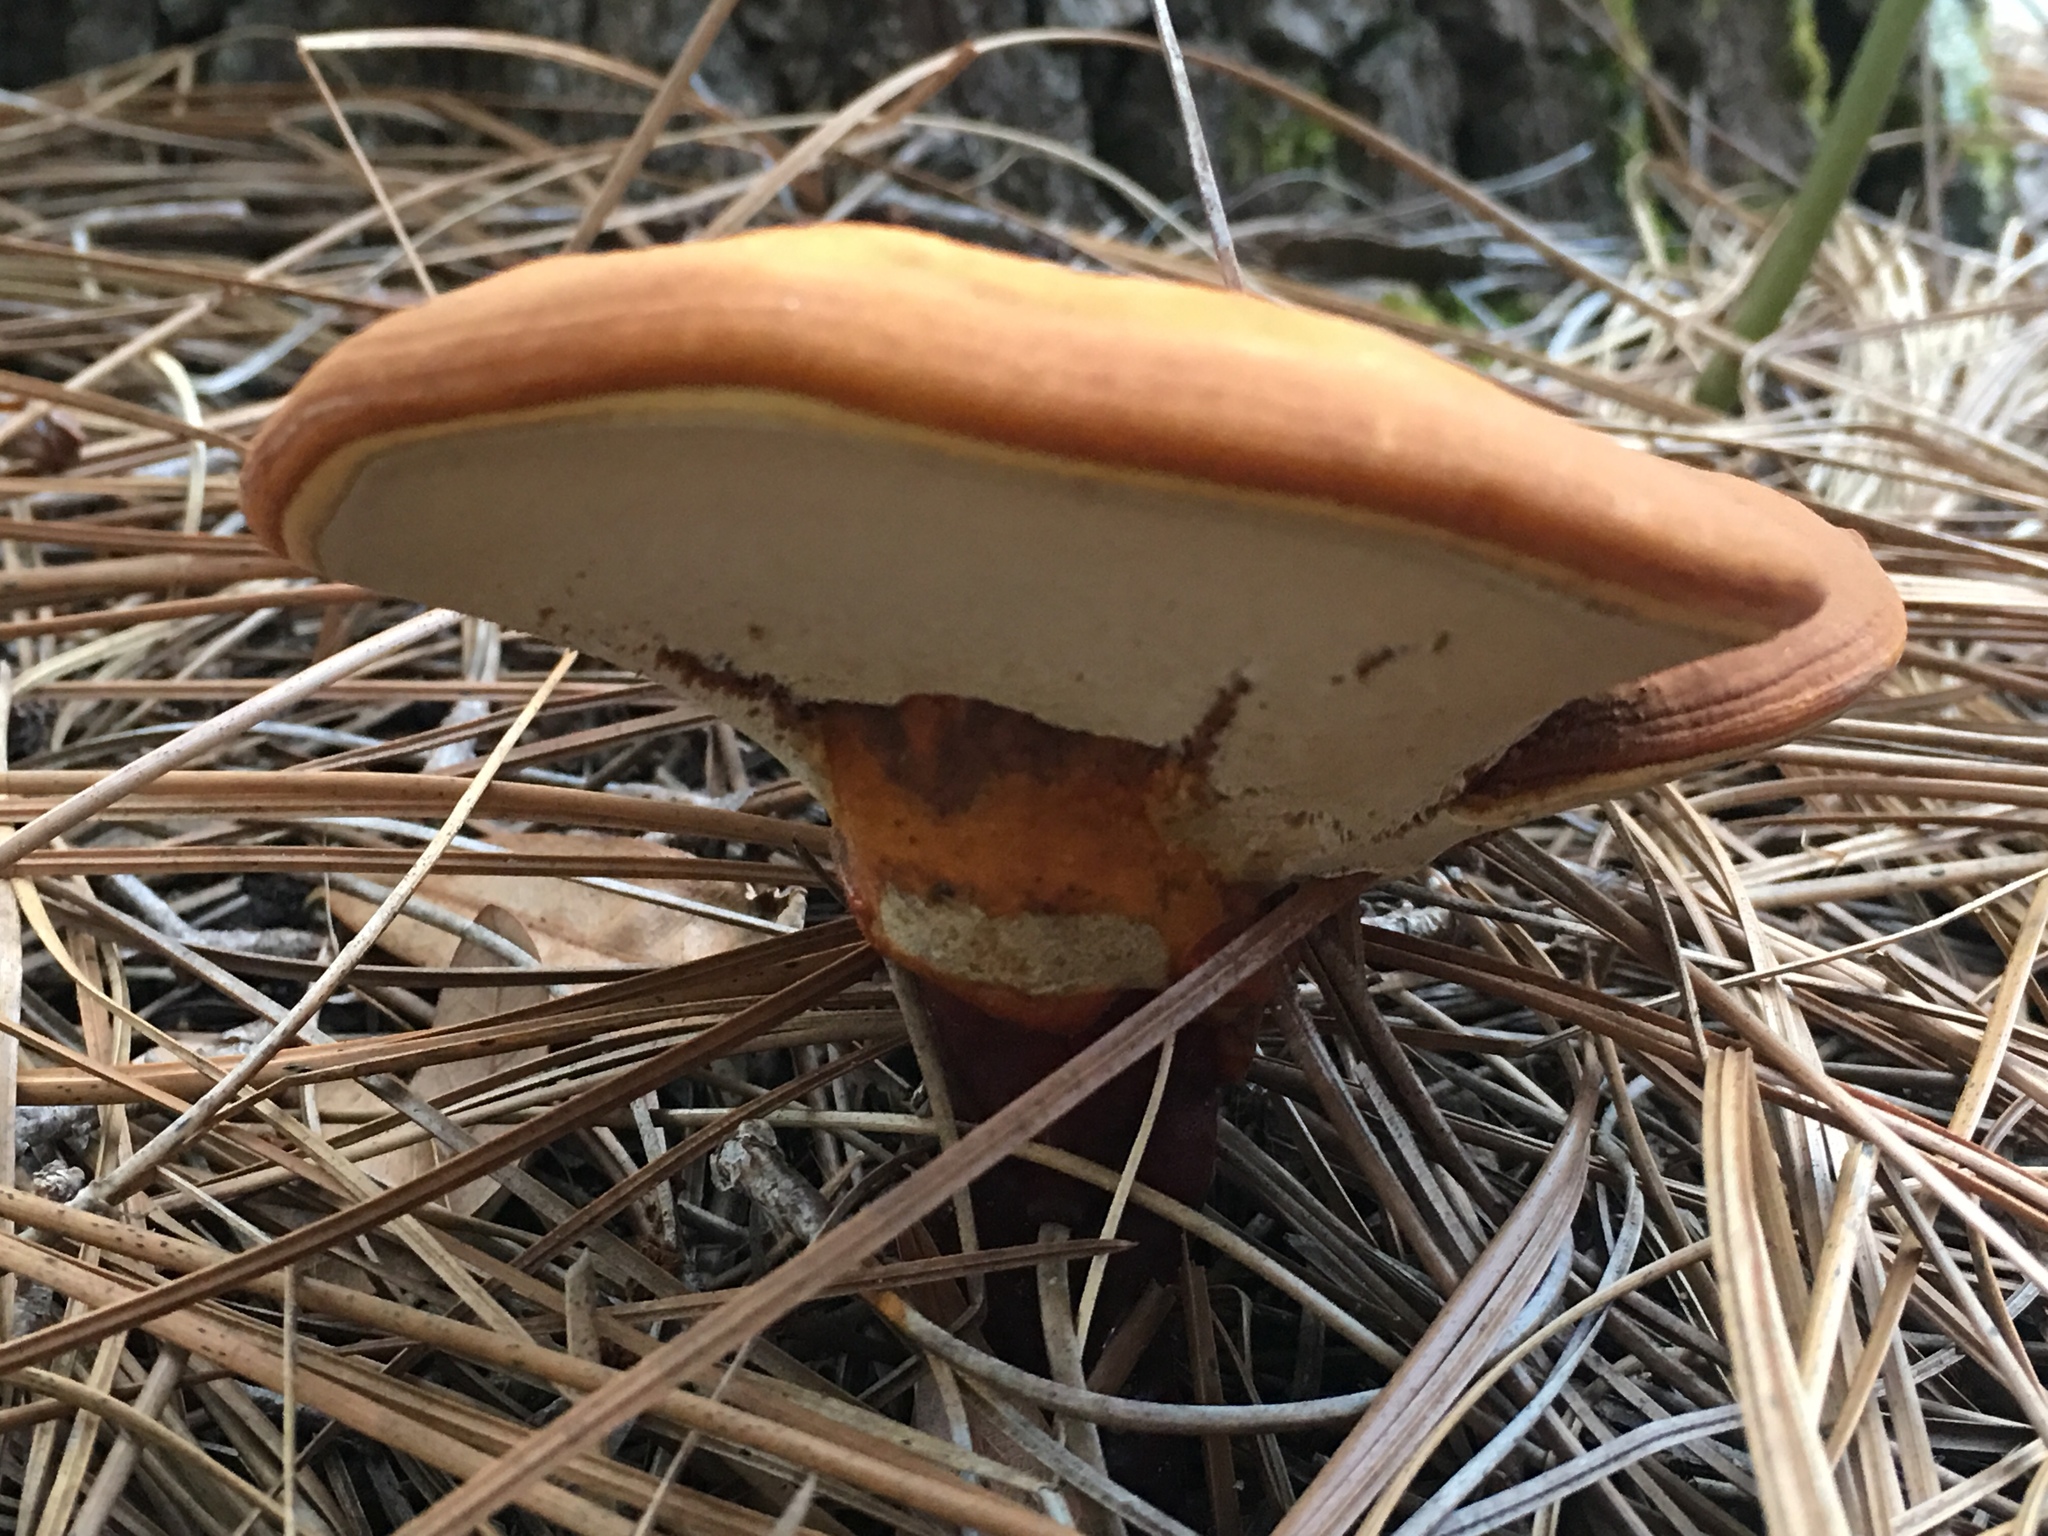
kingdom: Fungi
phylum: Basidiomycota
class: Agaricomycetes
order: Polyporales
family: Polyporaceae
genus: Ganoderma
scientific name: Ganoderma curtisii
